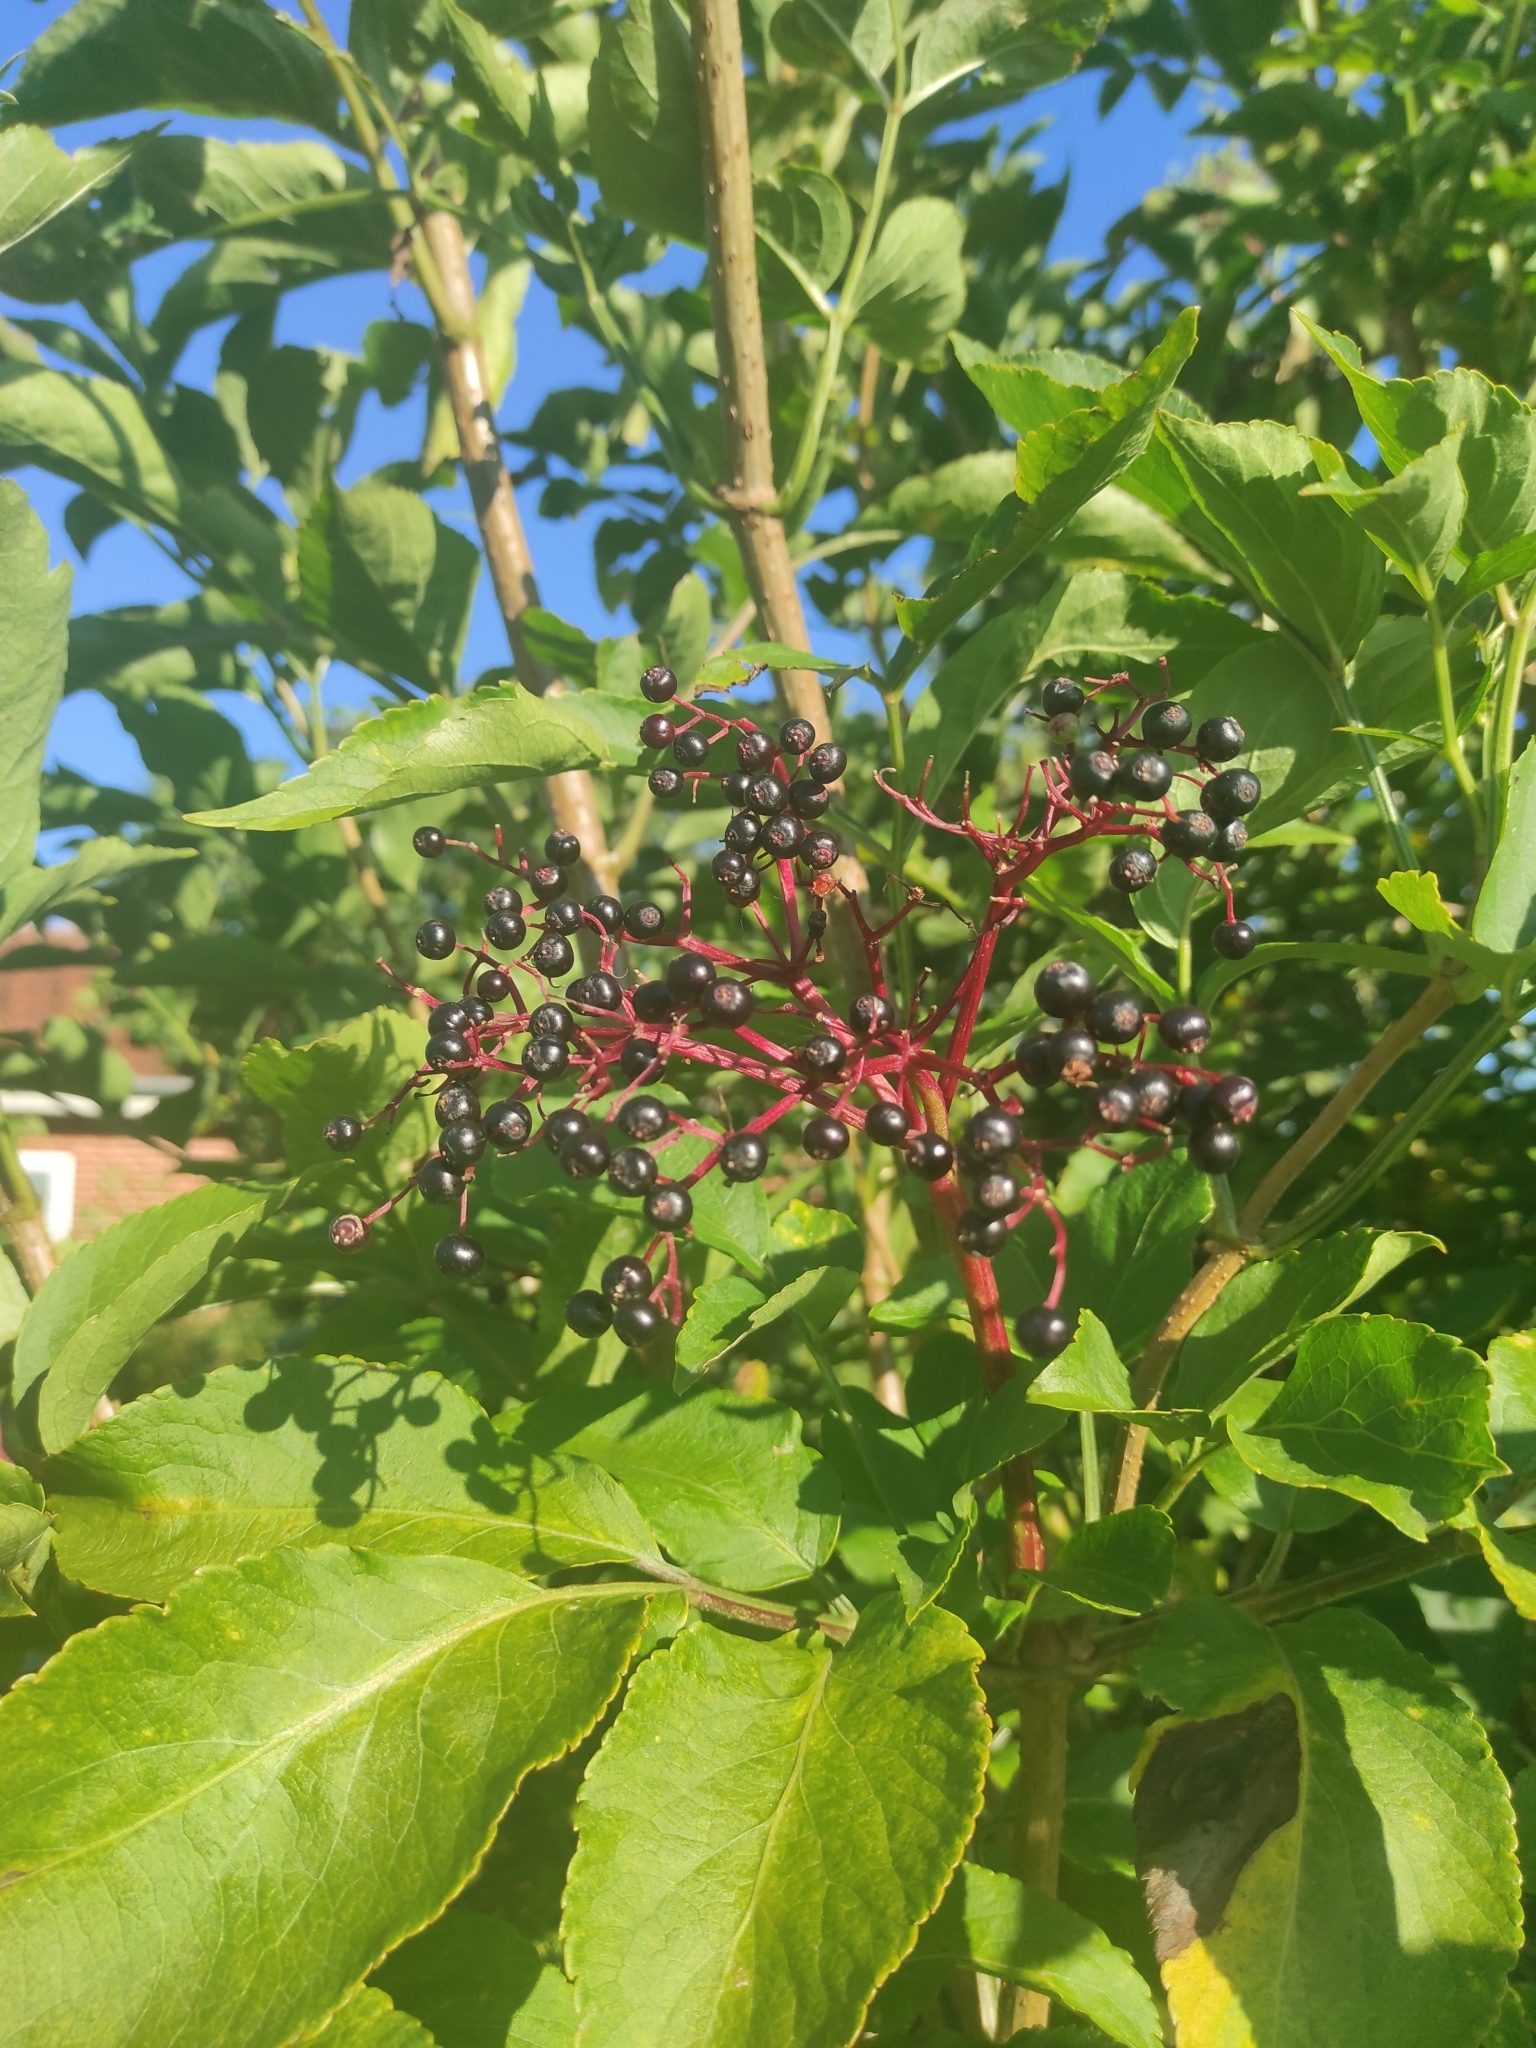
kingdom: Plantae
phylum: Tracheophyta
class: Magnoliopsida
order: Dipsacales
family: Viburnaceae
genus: Sambucus
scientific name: Sambucus nigra
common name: Elder
